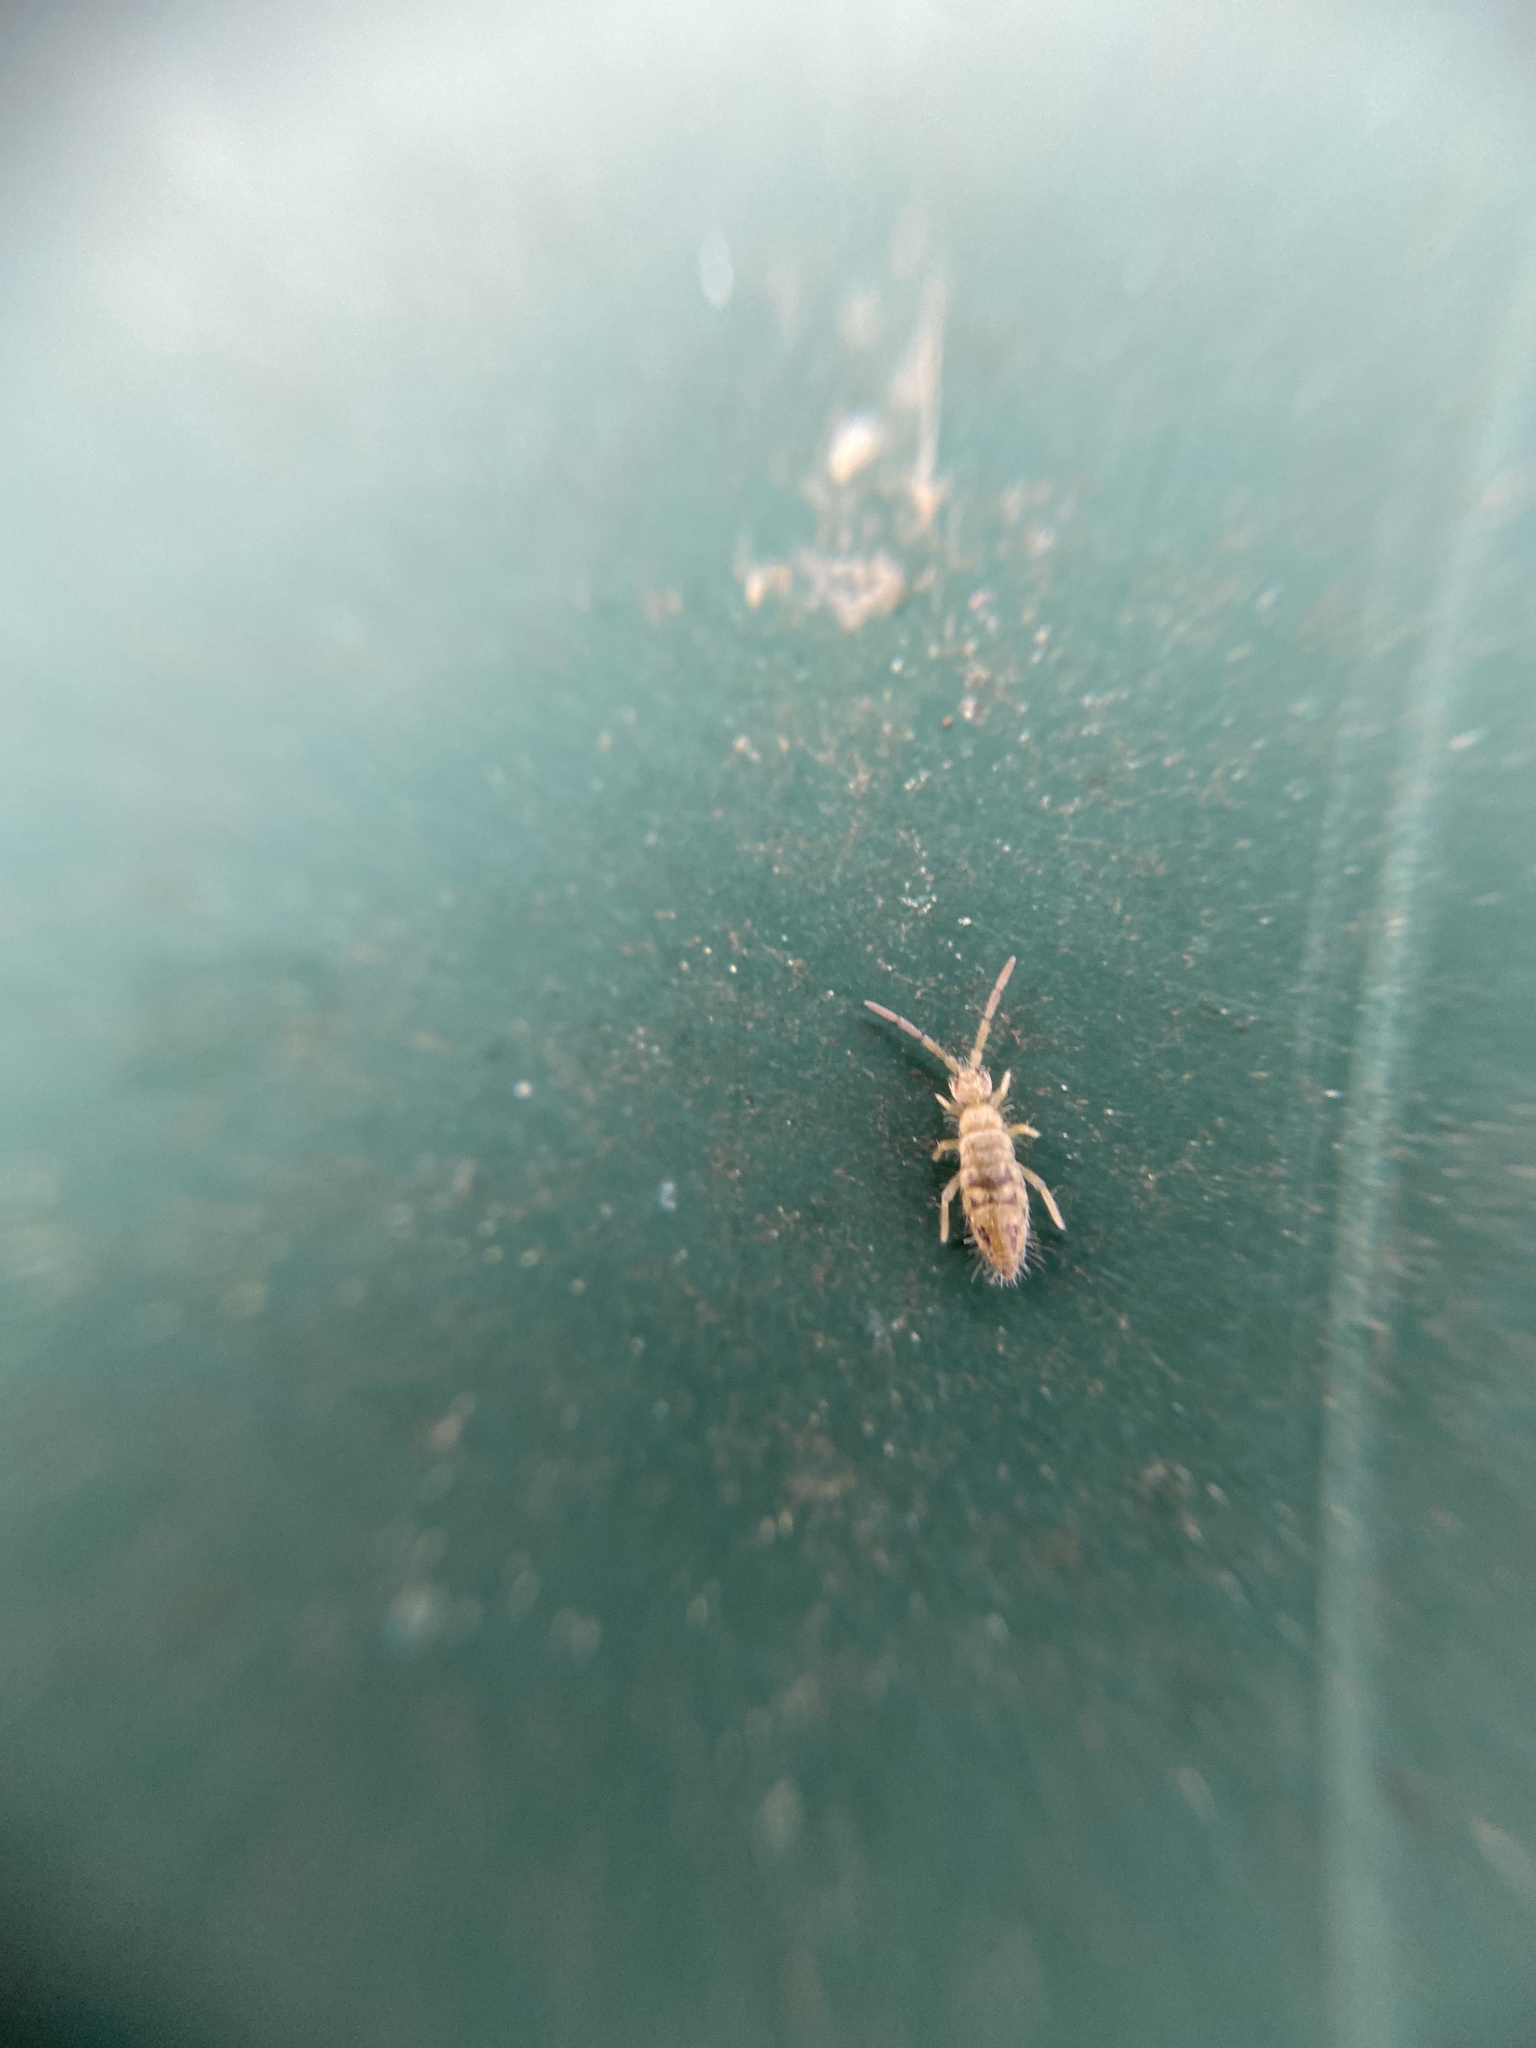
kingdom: Animalia
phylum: Arthropoda
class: Collembola
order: Entomobryomorpha
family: Entomobryidae
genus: Entomobrya
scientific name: Entomobrya nivalis
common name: Cosmopolitan springtail
